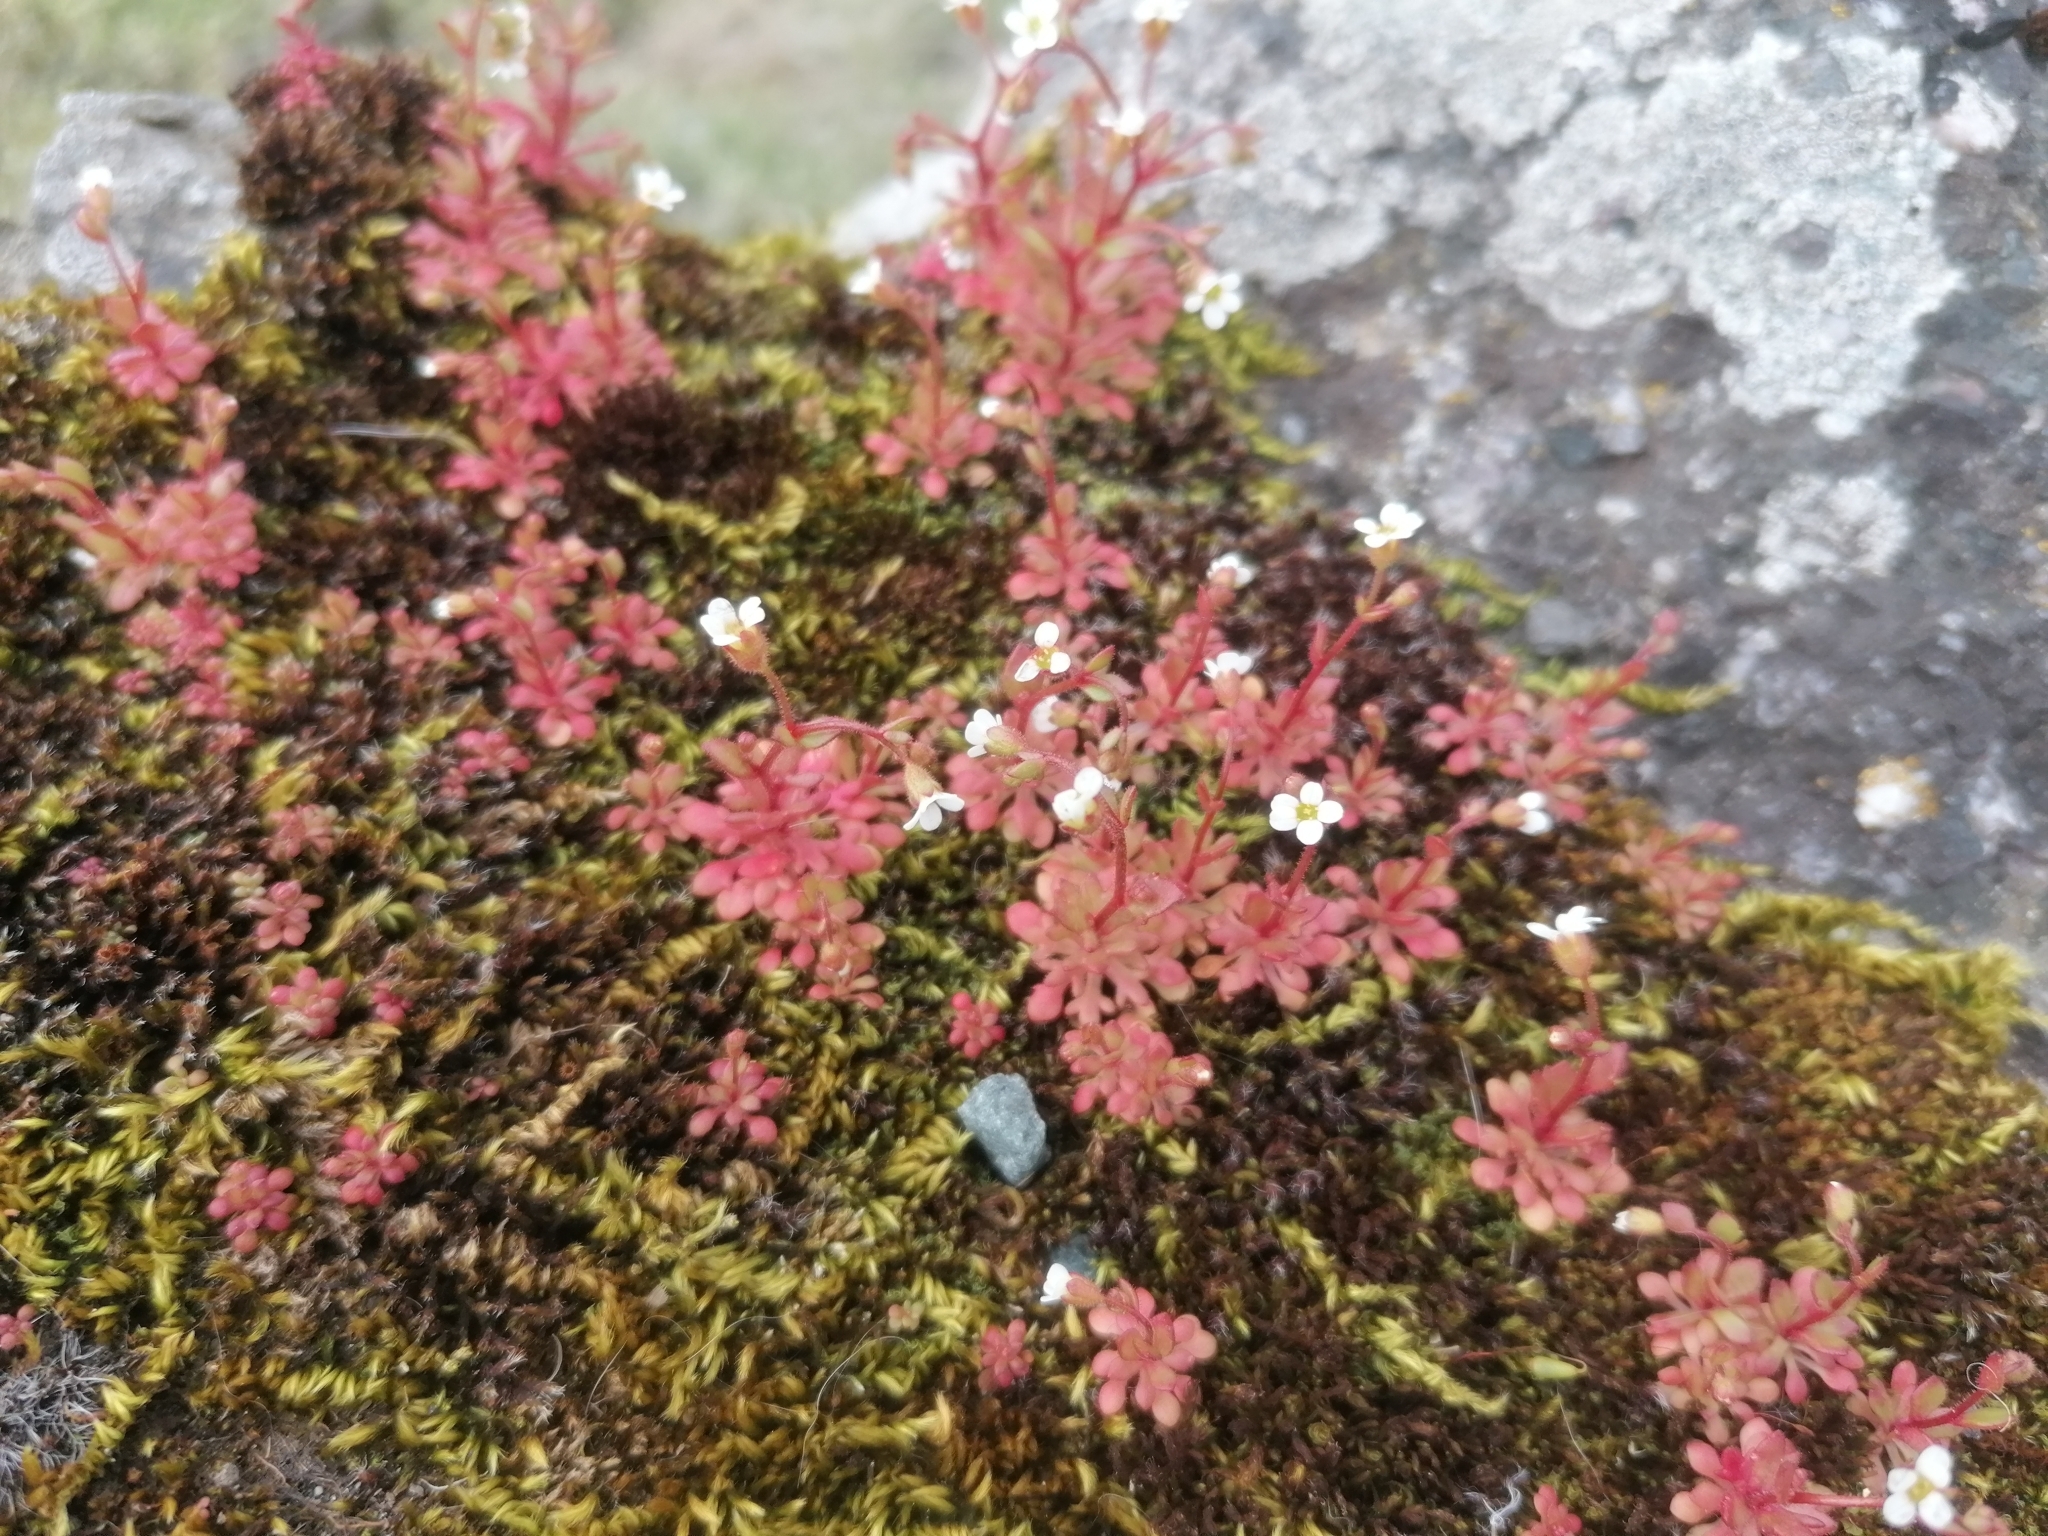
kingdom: Plantae
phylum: Tracheophyta
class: Magnoliopsida
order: Saxifragales
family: Saxifragaceae
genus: Saxifraga
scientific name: Saxifraga tridactylites
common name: Rue-leaved saxifrage
